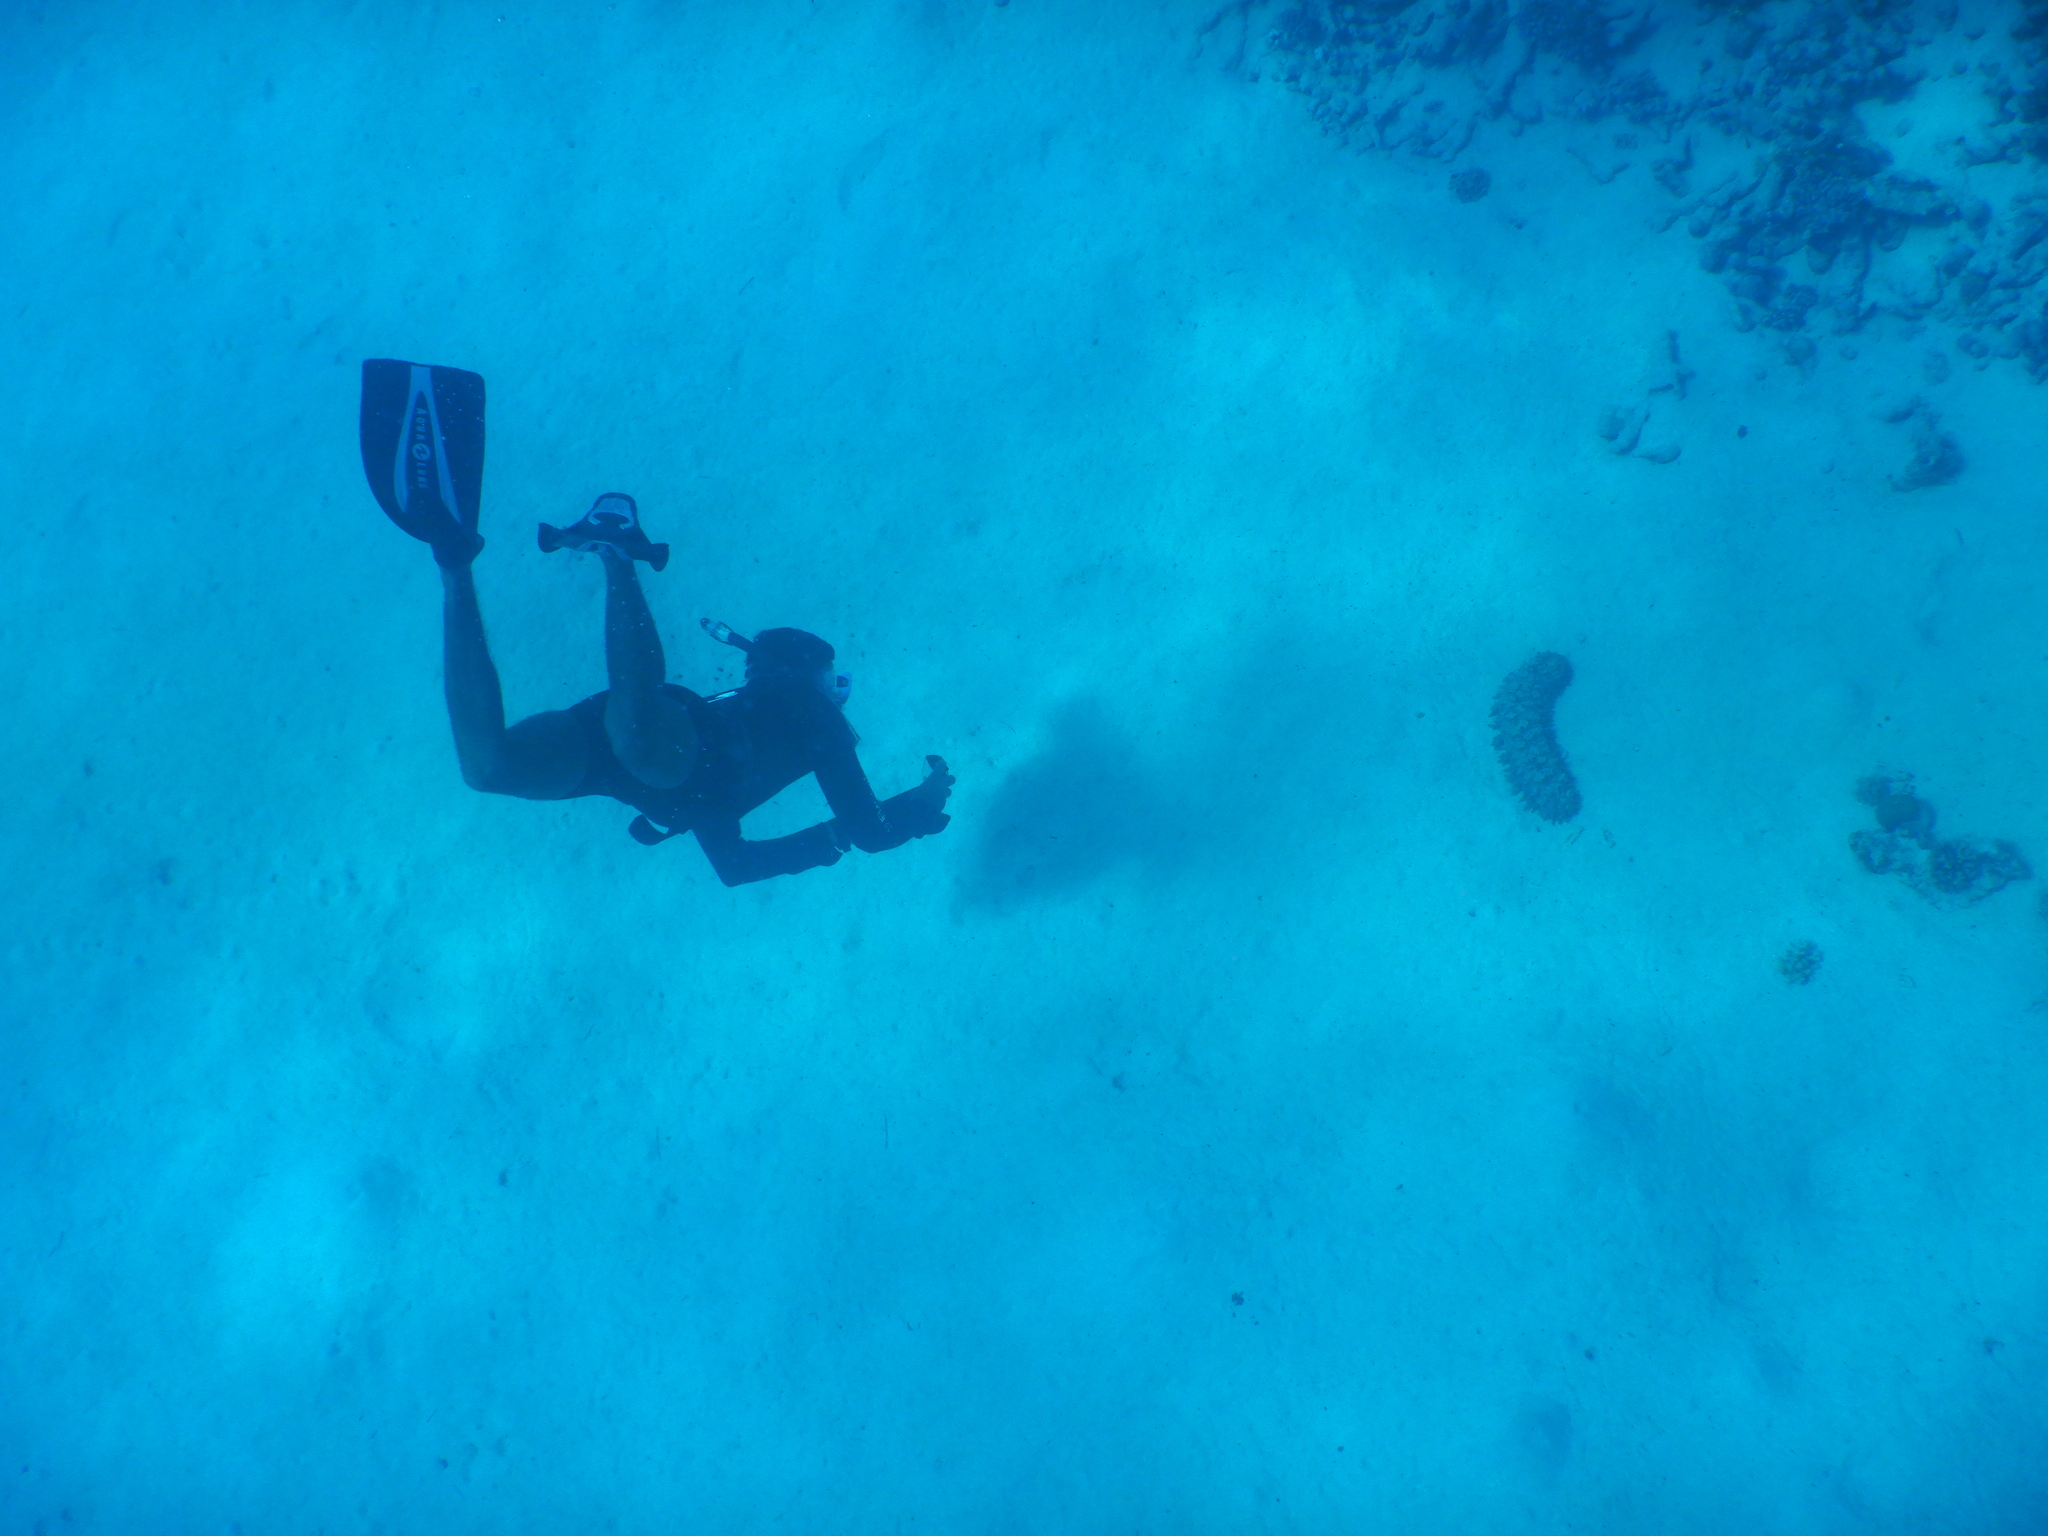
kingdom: Animalia
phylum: Echinodermata
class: Holothuroidea
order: Synallactida
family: Stichopodidae
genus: Thelenota
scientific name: Thelenota ananas
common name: Prickly redfish
